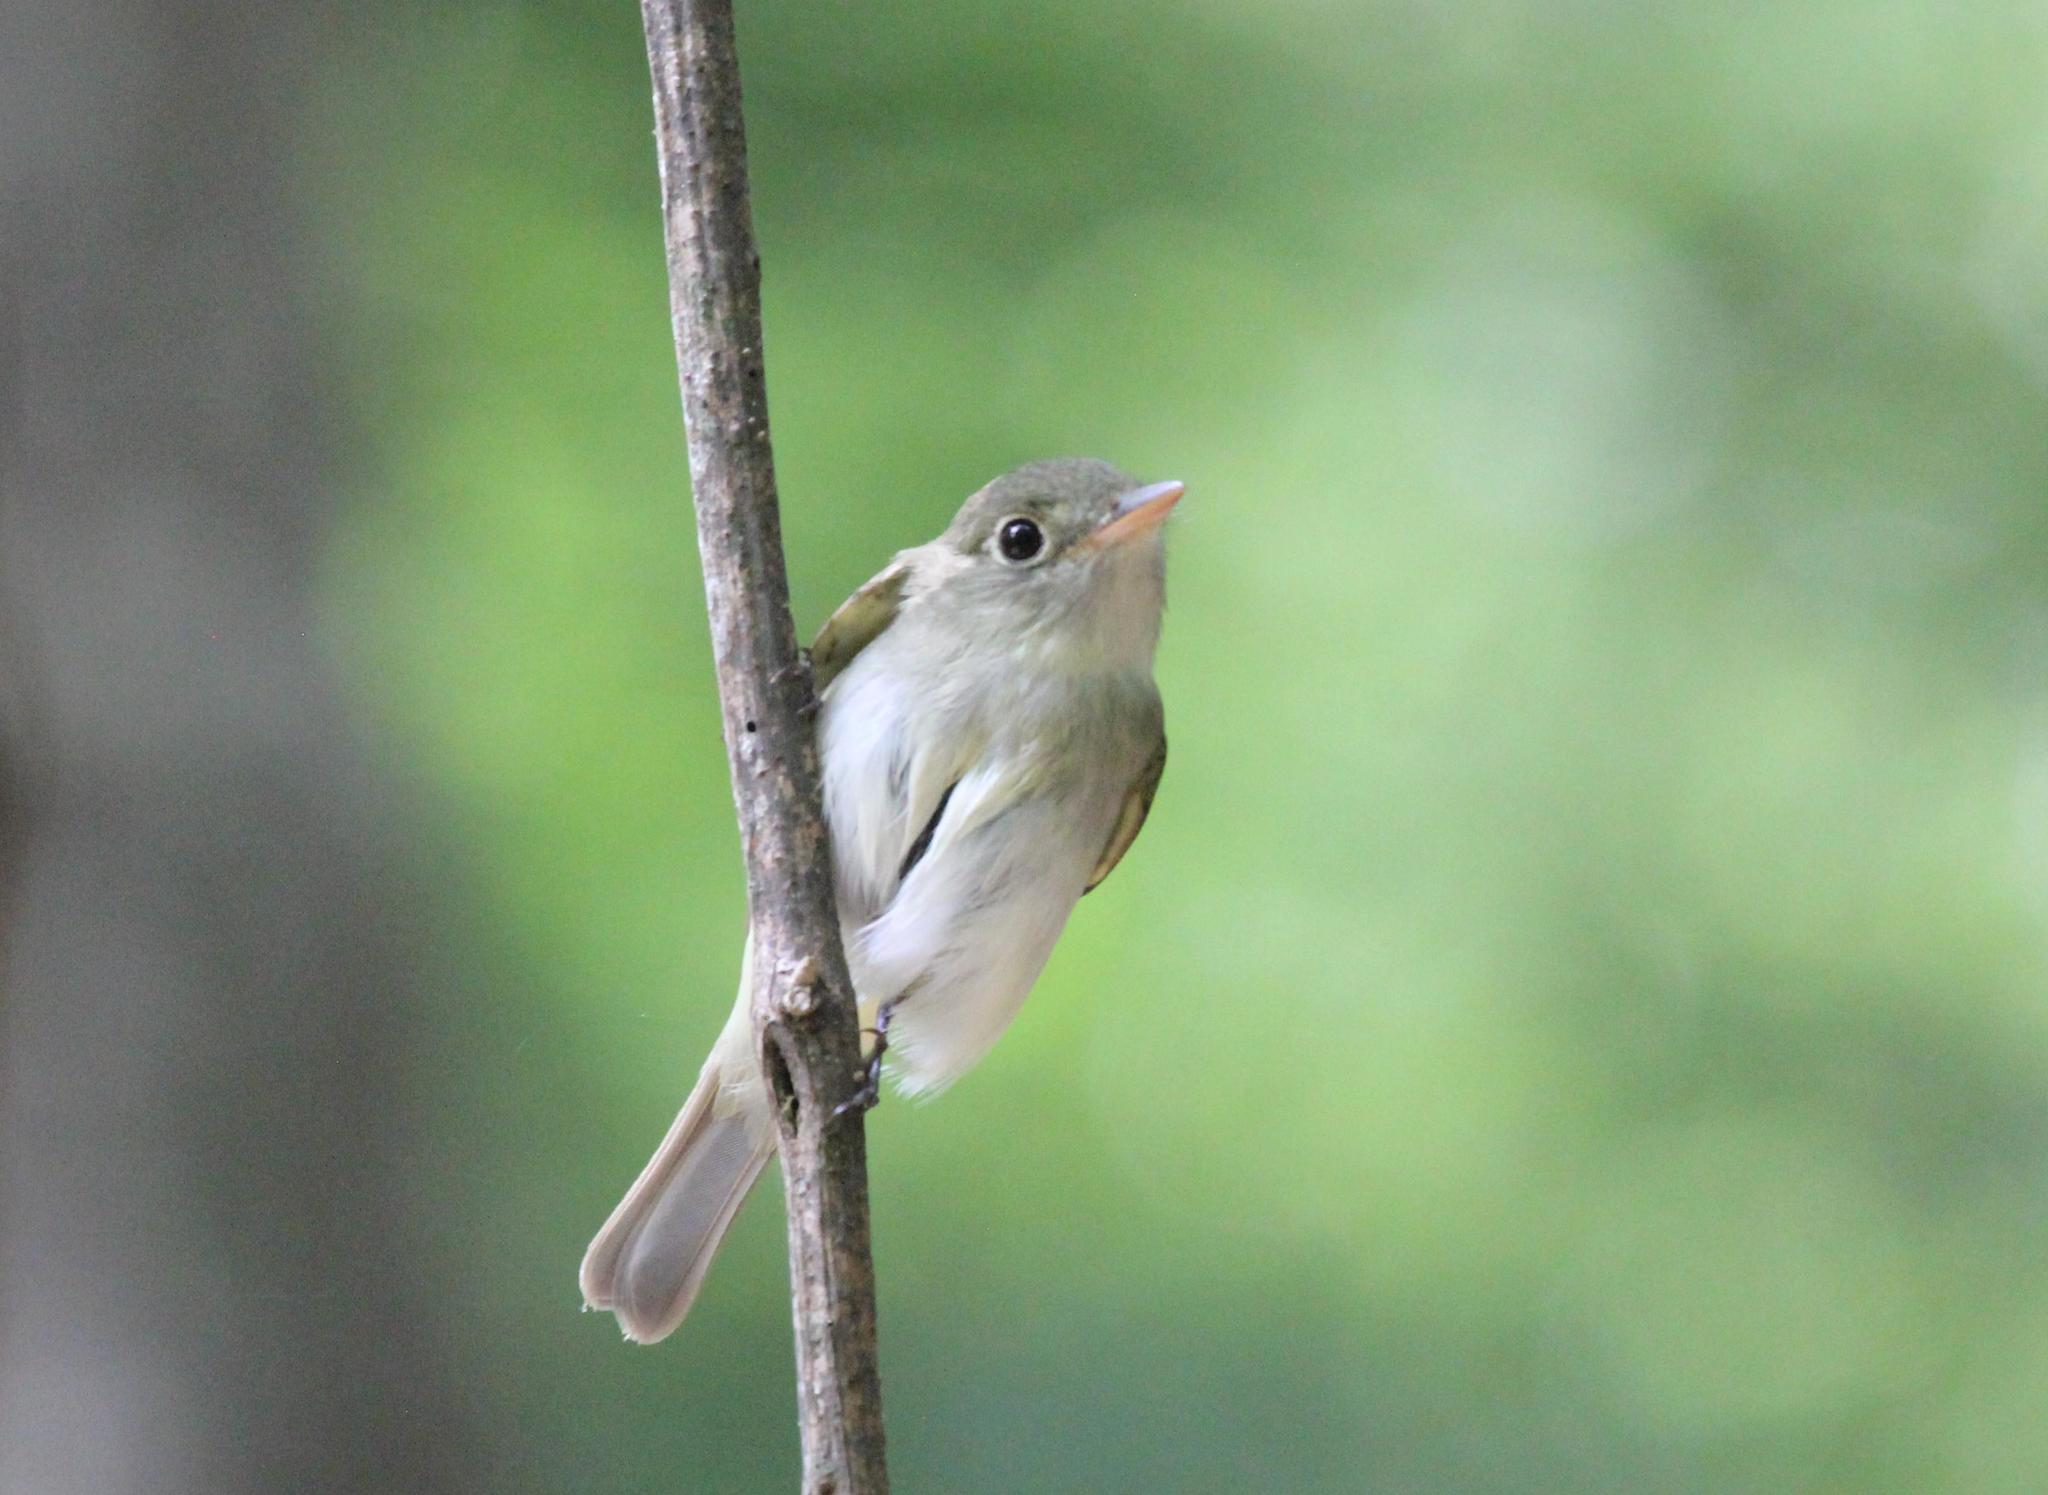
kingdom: Animalia
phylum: Chordata
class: Aves
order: Passeriformes
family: Tyrannidae
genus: Empidonax
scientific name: Empidonax virescens
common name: Acadian flycatcher
